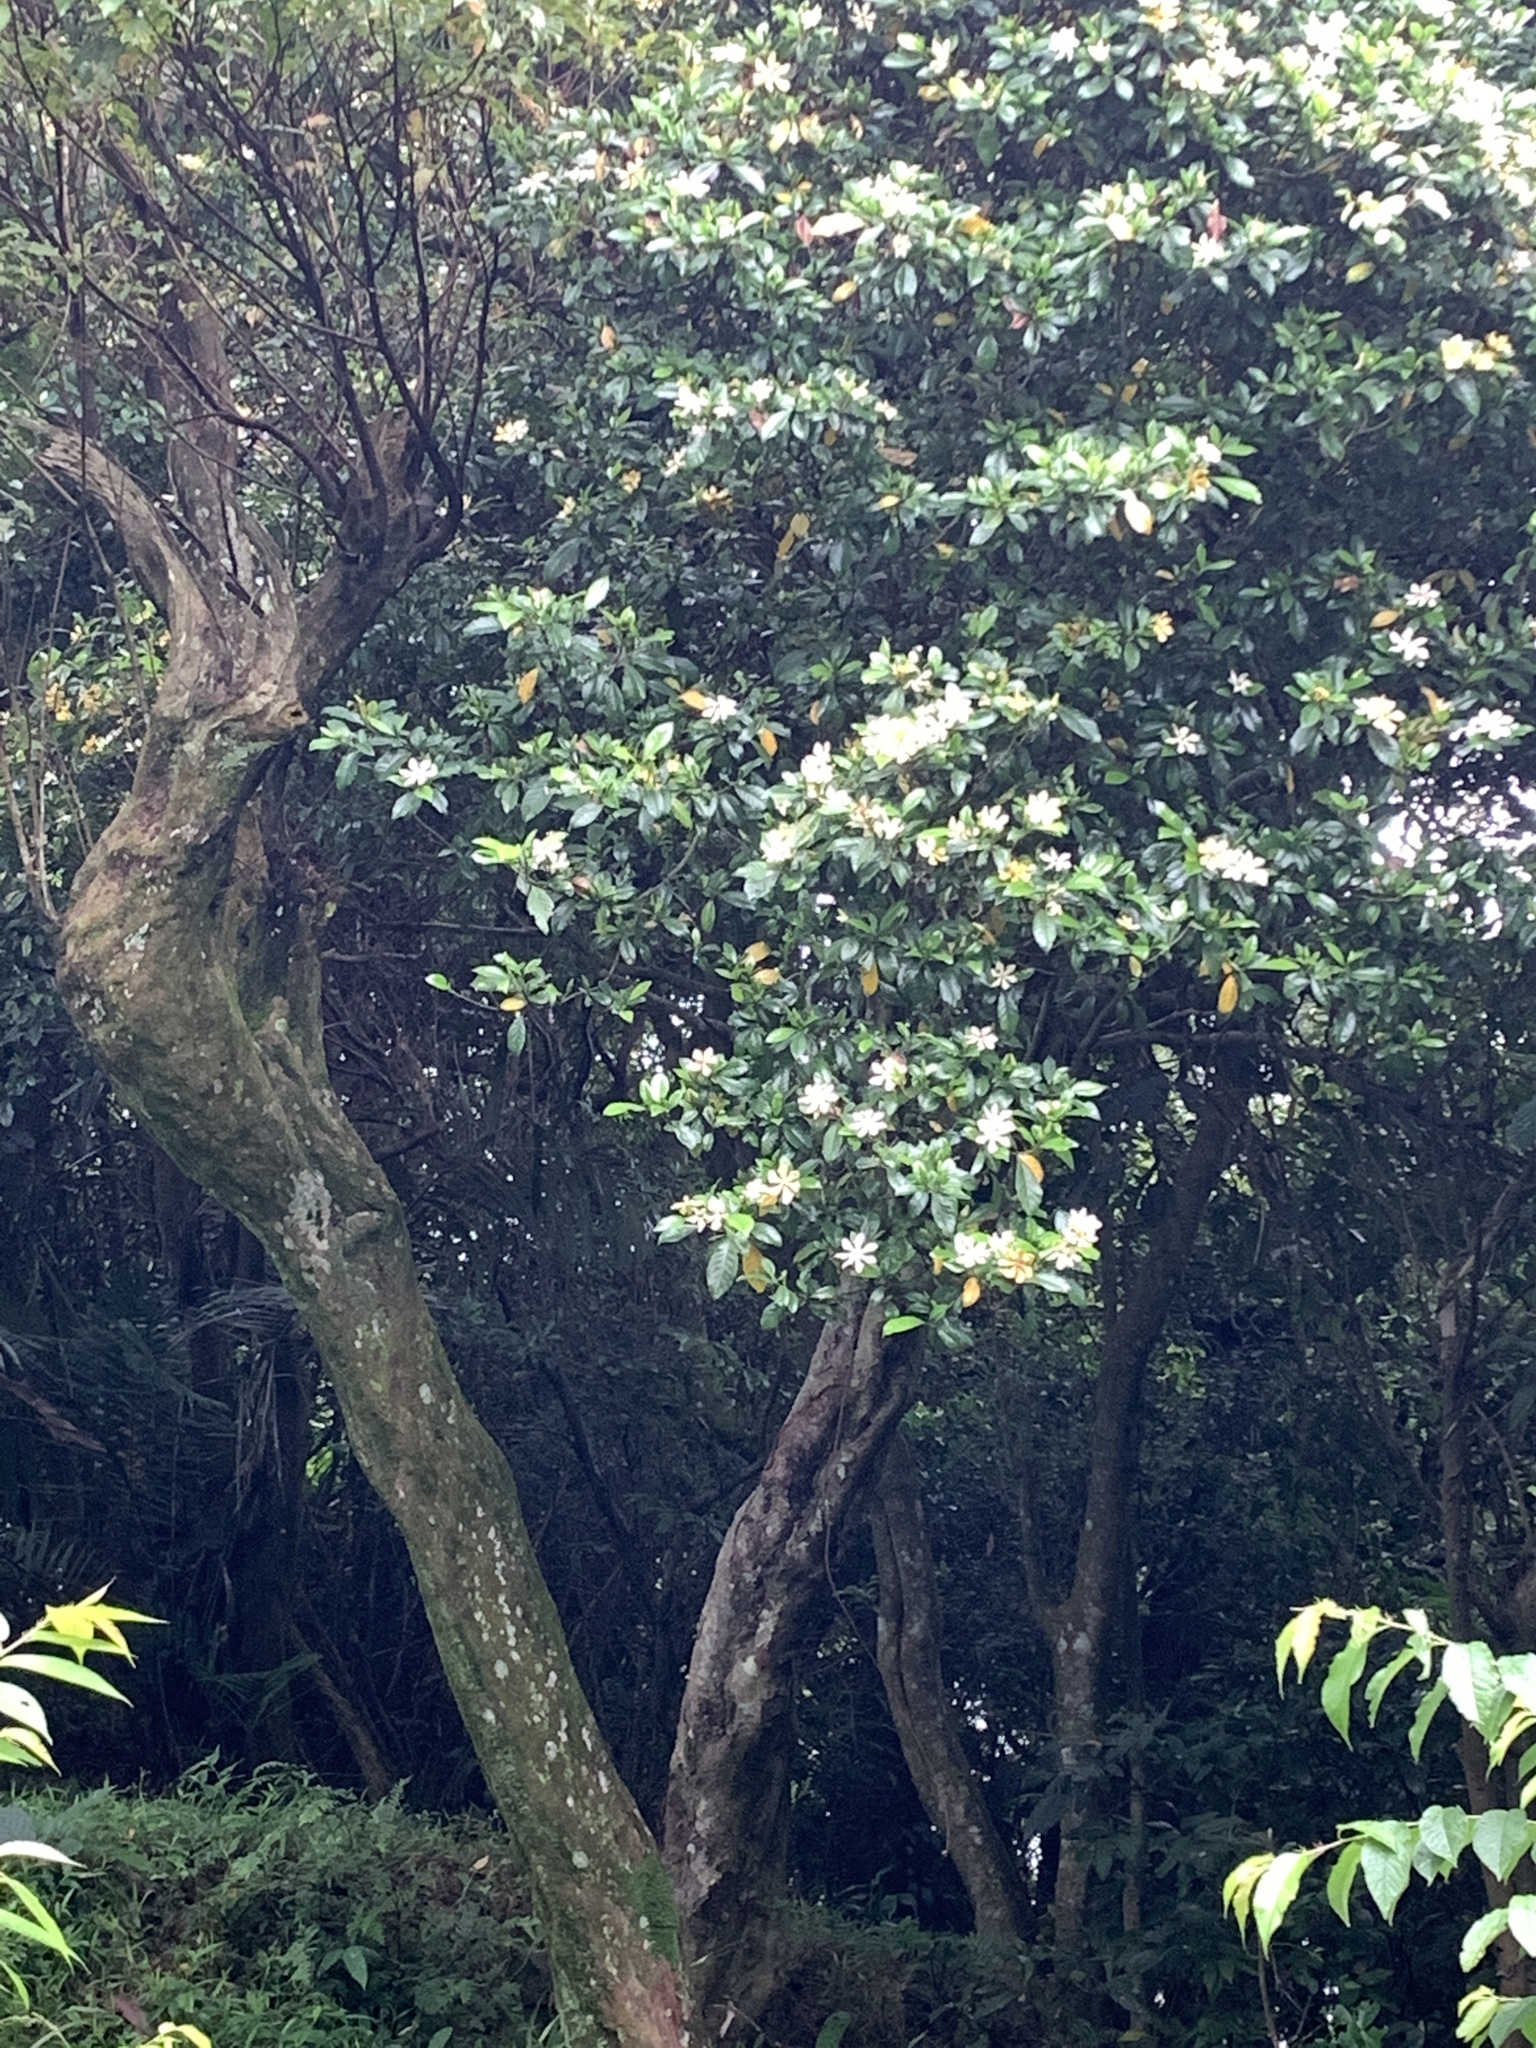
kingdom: Plantae
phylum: Tracheophyta
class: Magnoliopsida
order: Gentianales
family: Rubiaceae
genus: Gardenia
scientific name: Gardenia jasminoides
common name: Cape-jasmine
